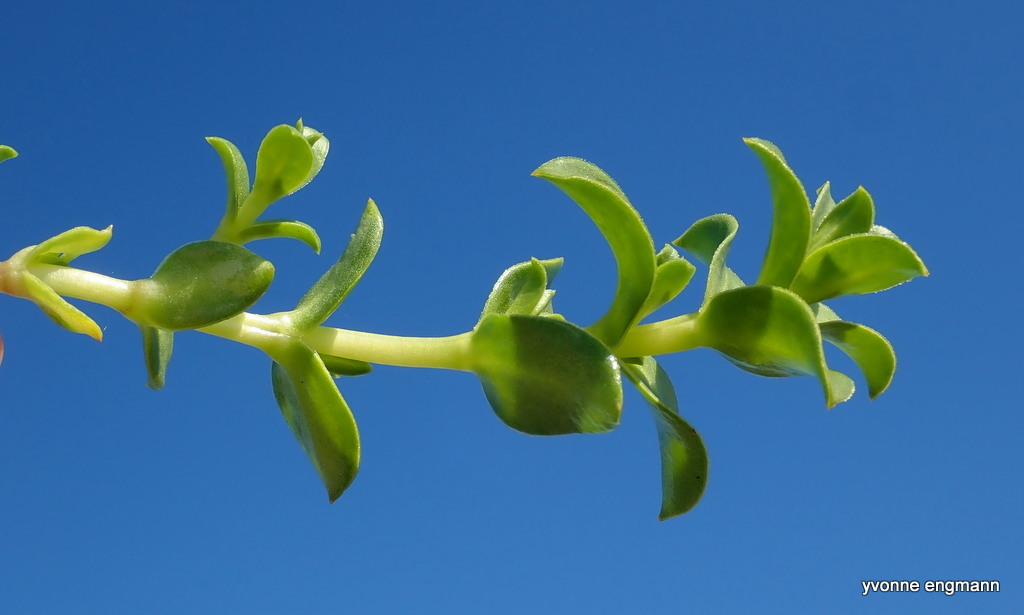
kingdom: Plantae
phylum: Tracheophyta
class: Magnoliopsida
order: Caryophyllales
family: Caryophyllaceae
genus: Honckenya
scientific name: Honckenya peploides
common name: Sea sandwort
